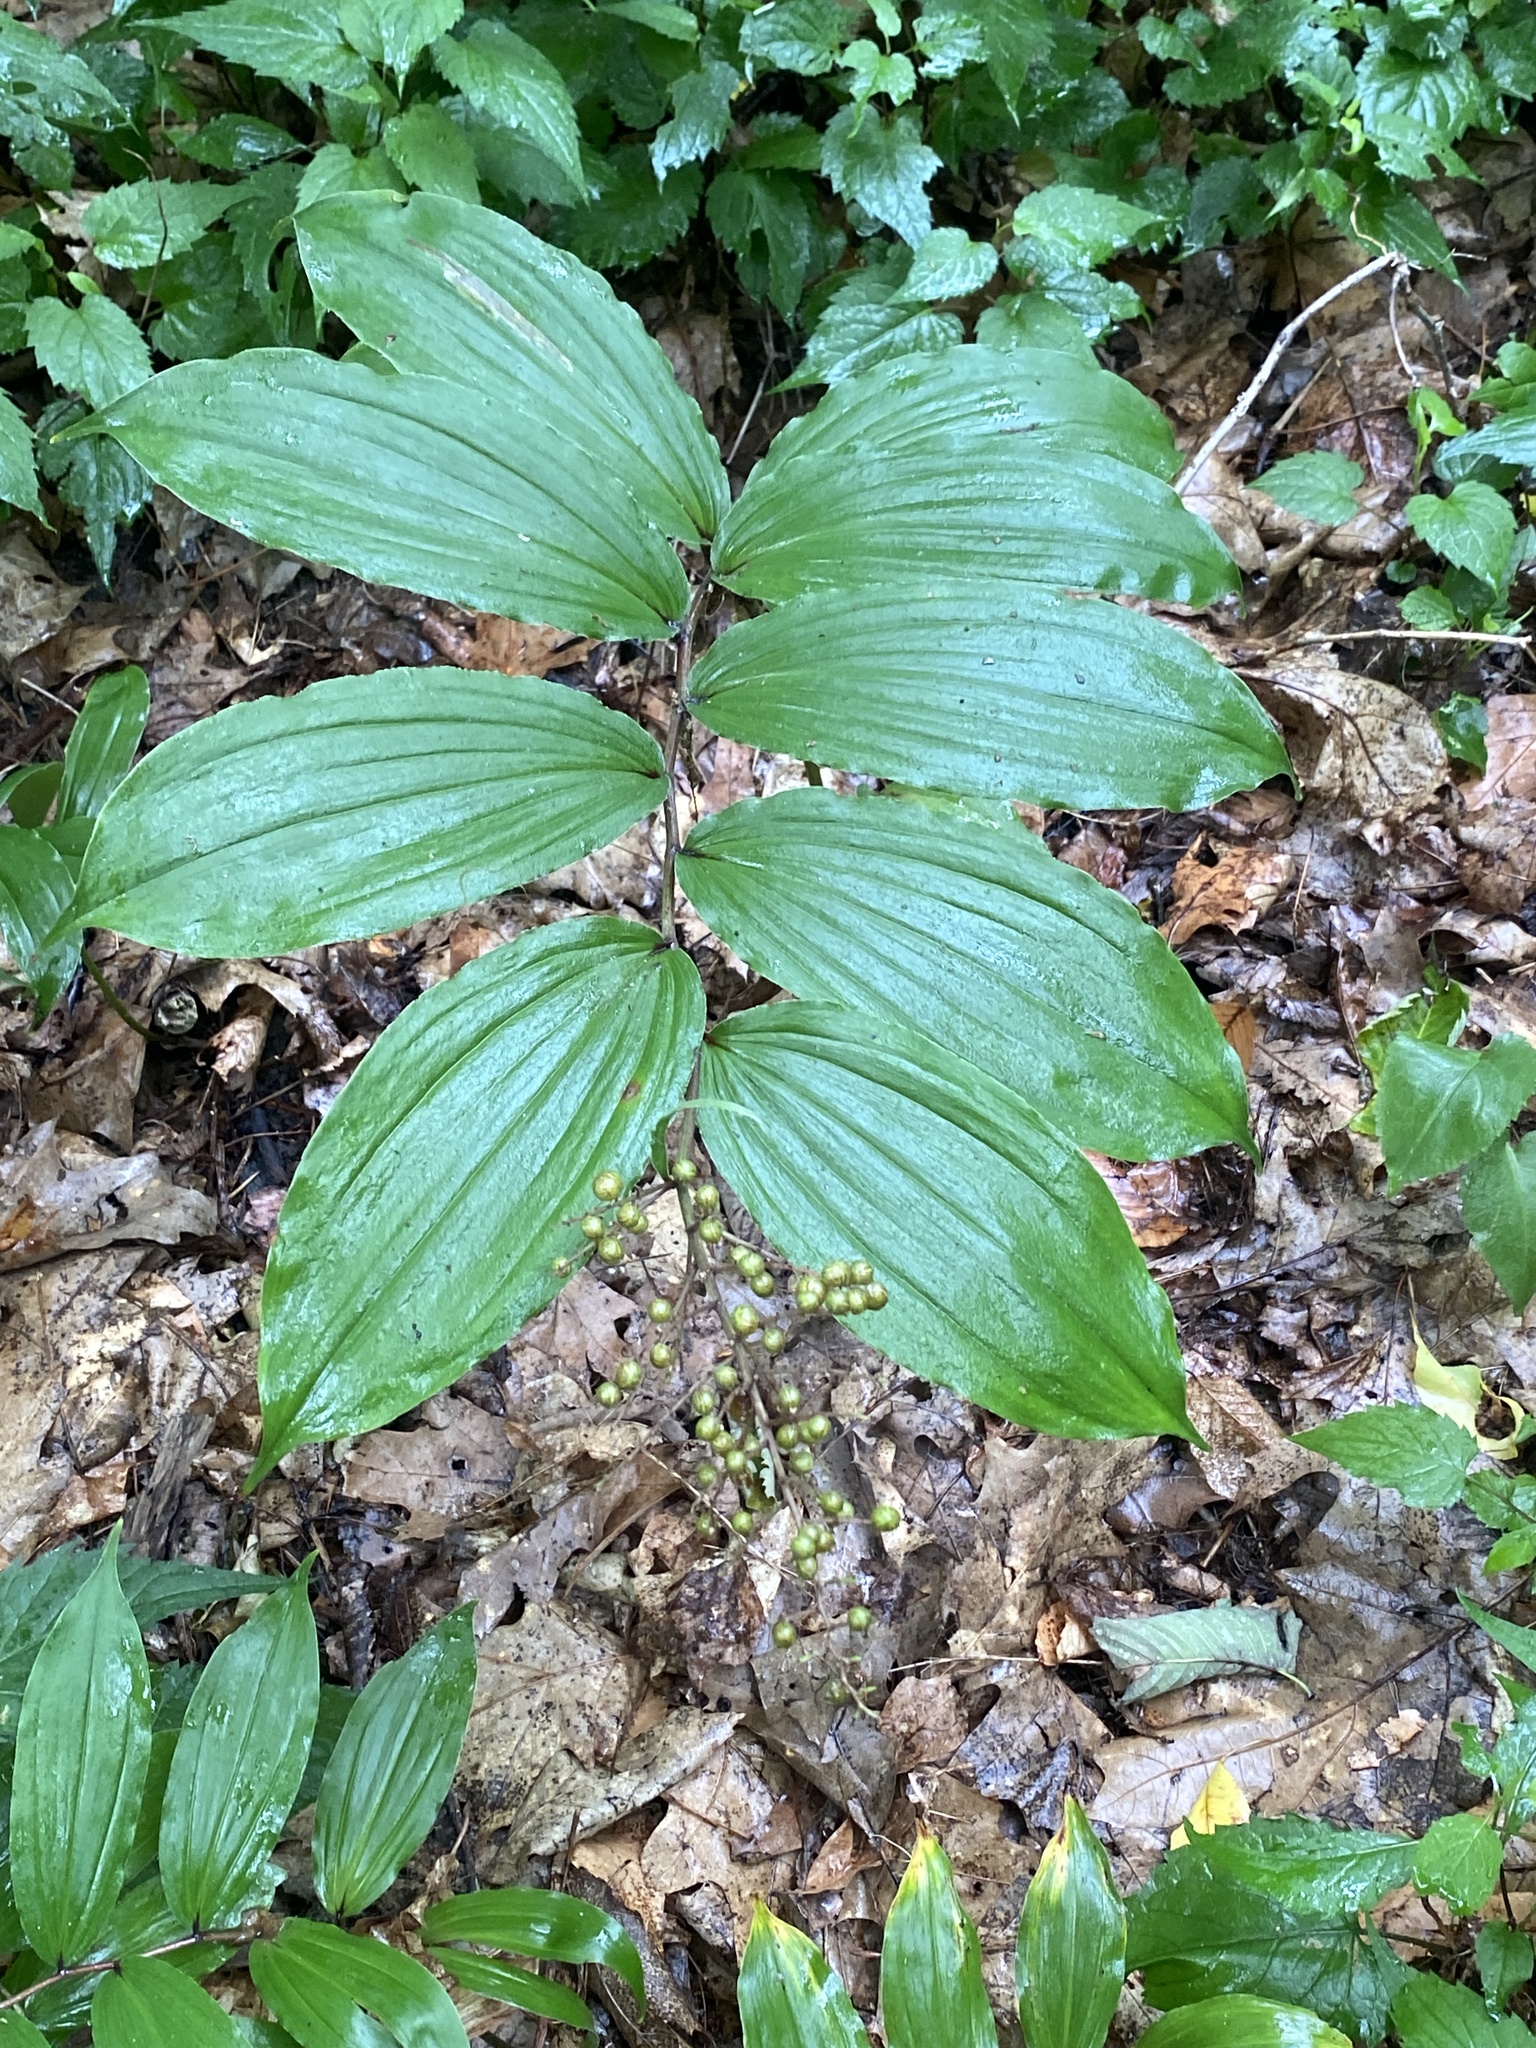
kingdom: Plantae
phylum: Tracheophyta
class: Liliopsida
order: Asparagales
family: Asparagaceae
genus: Maianthemum
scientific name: Maianthemum racemosum
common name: False spikenard
